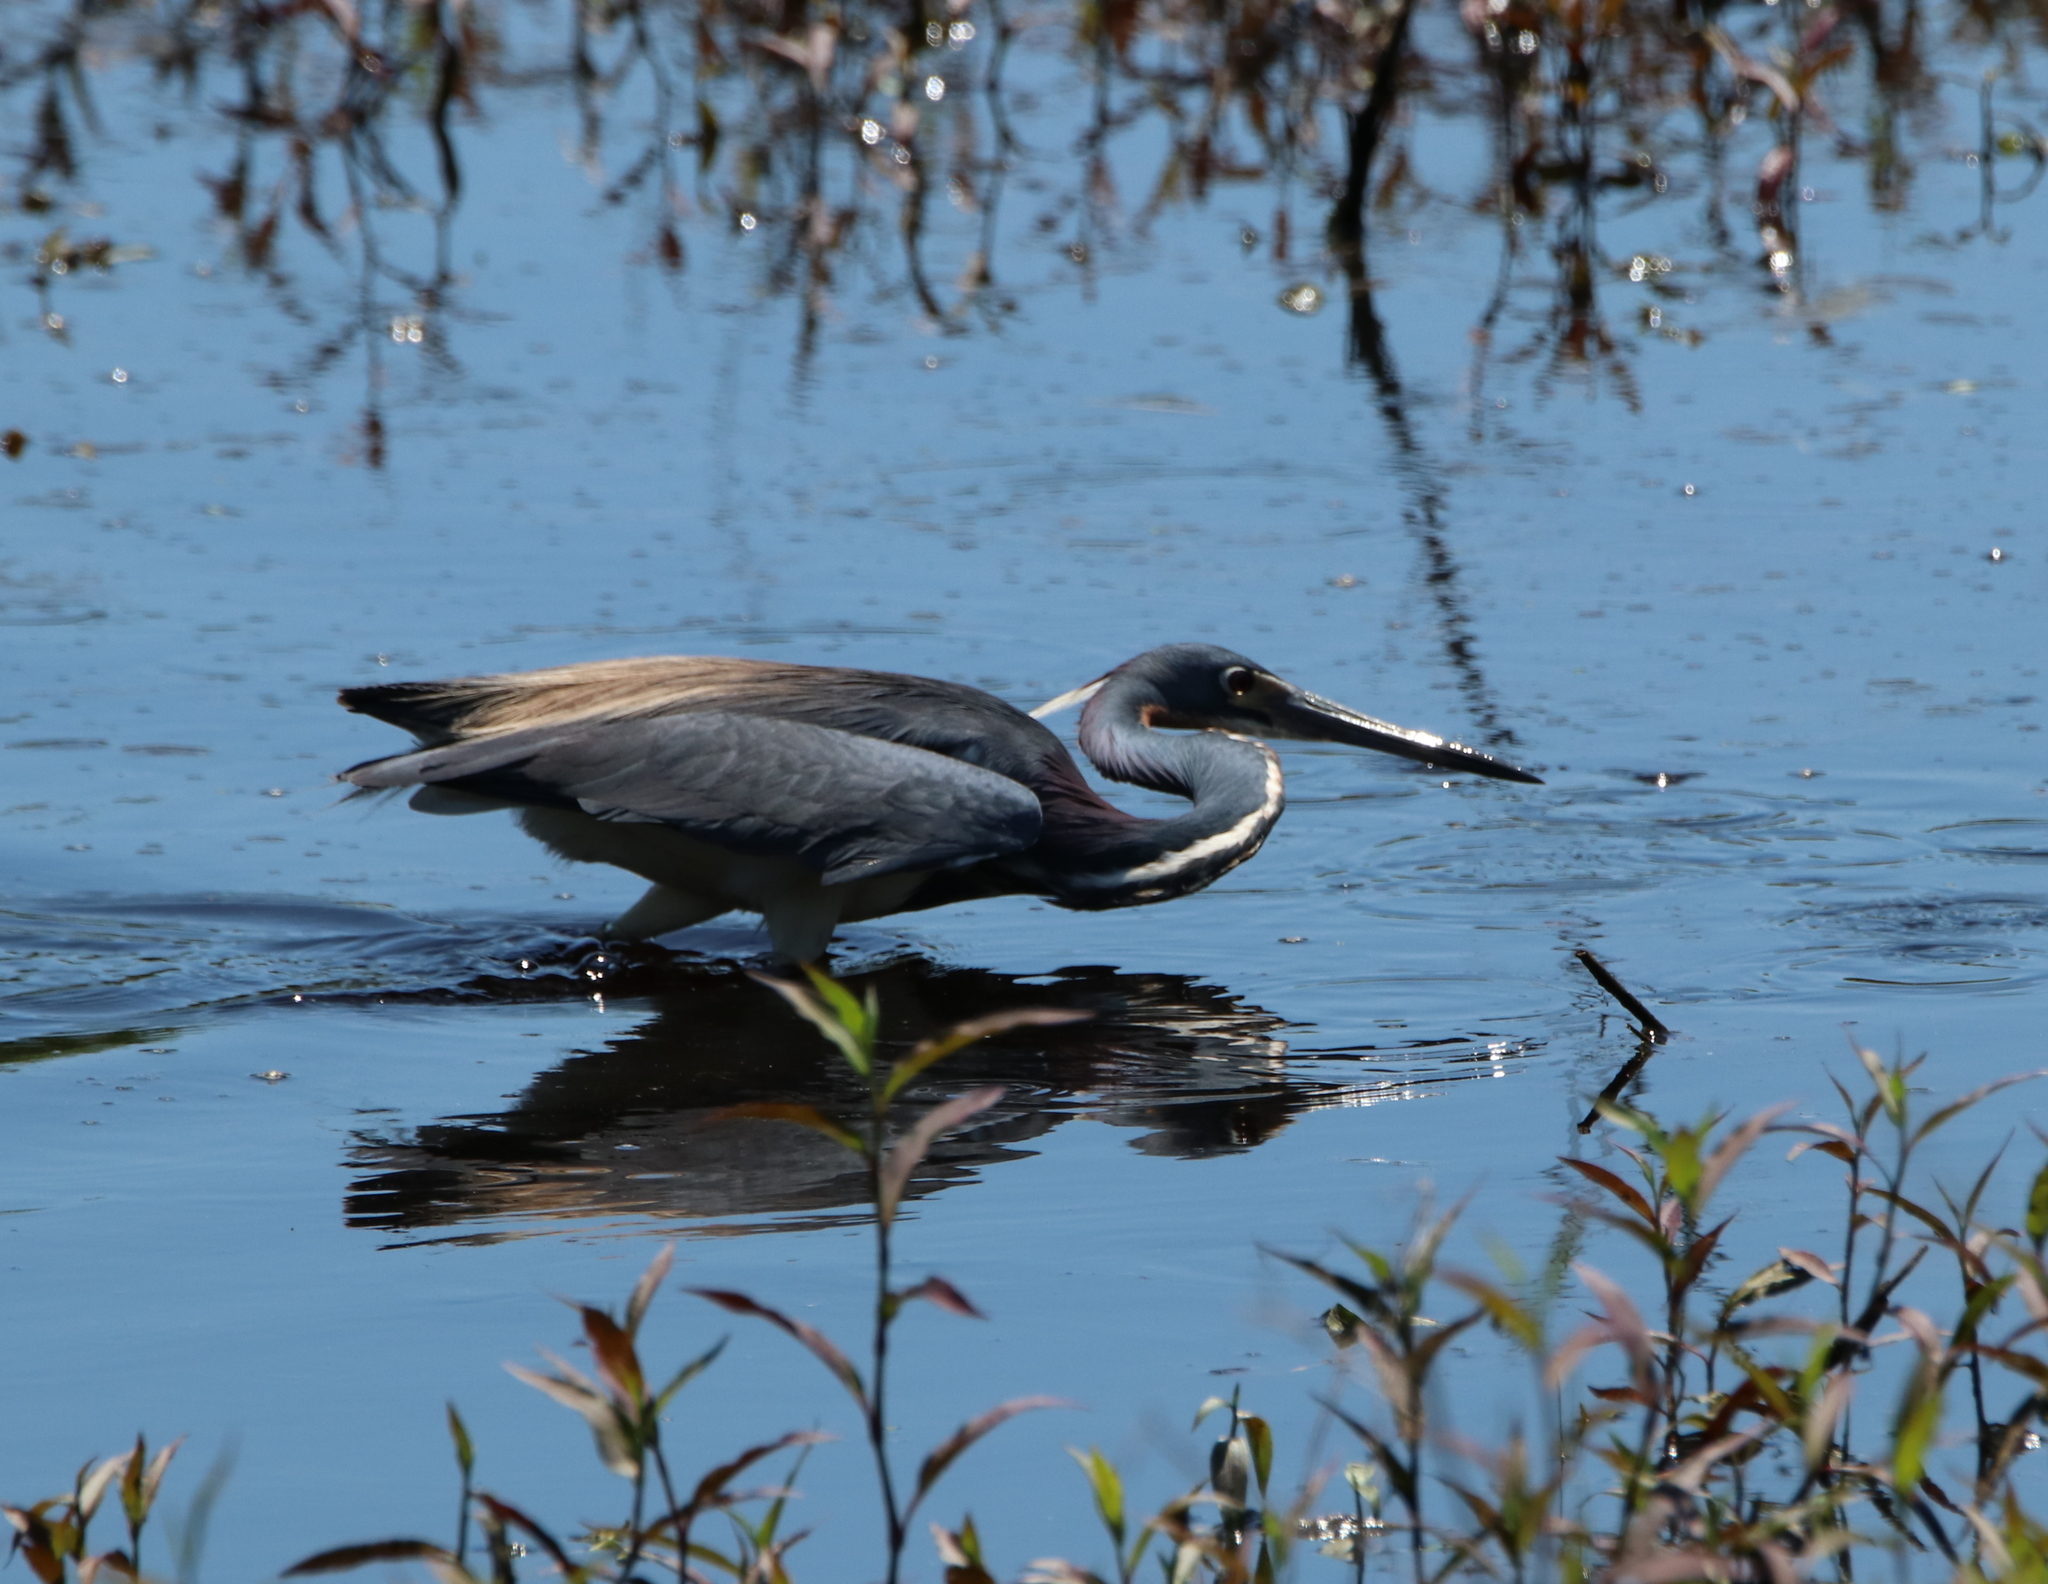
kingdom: Animalia
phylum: Chordata
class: Aves
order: Pelecaniformes
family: Ardeidae
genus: Egretta
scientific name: Egretta tricolor
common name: Tricolored heron
